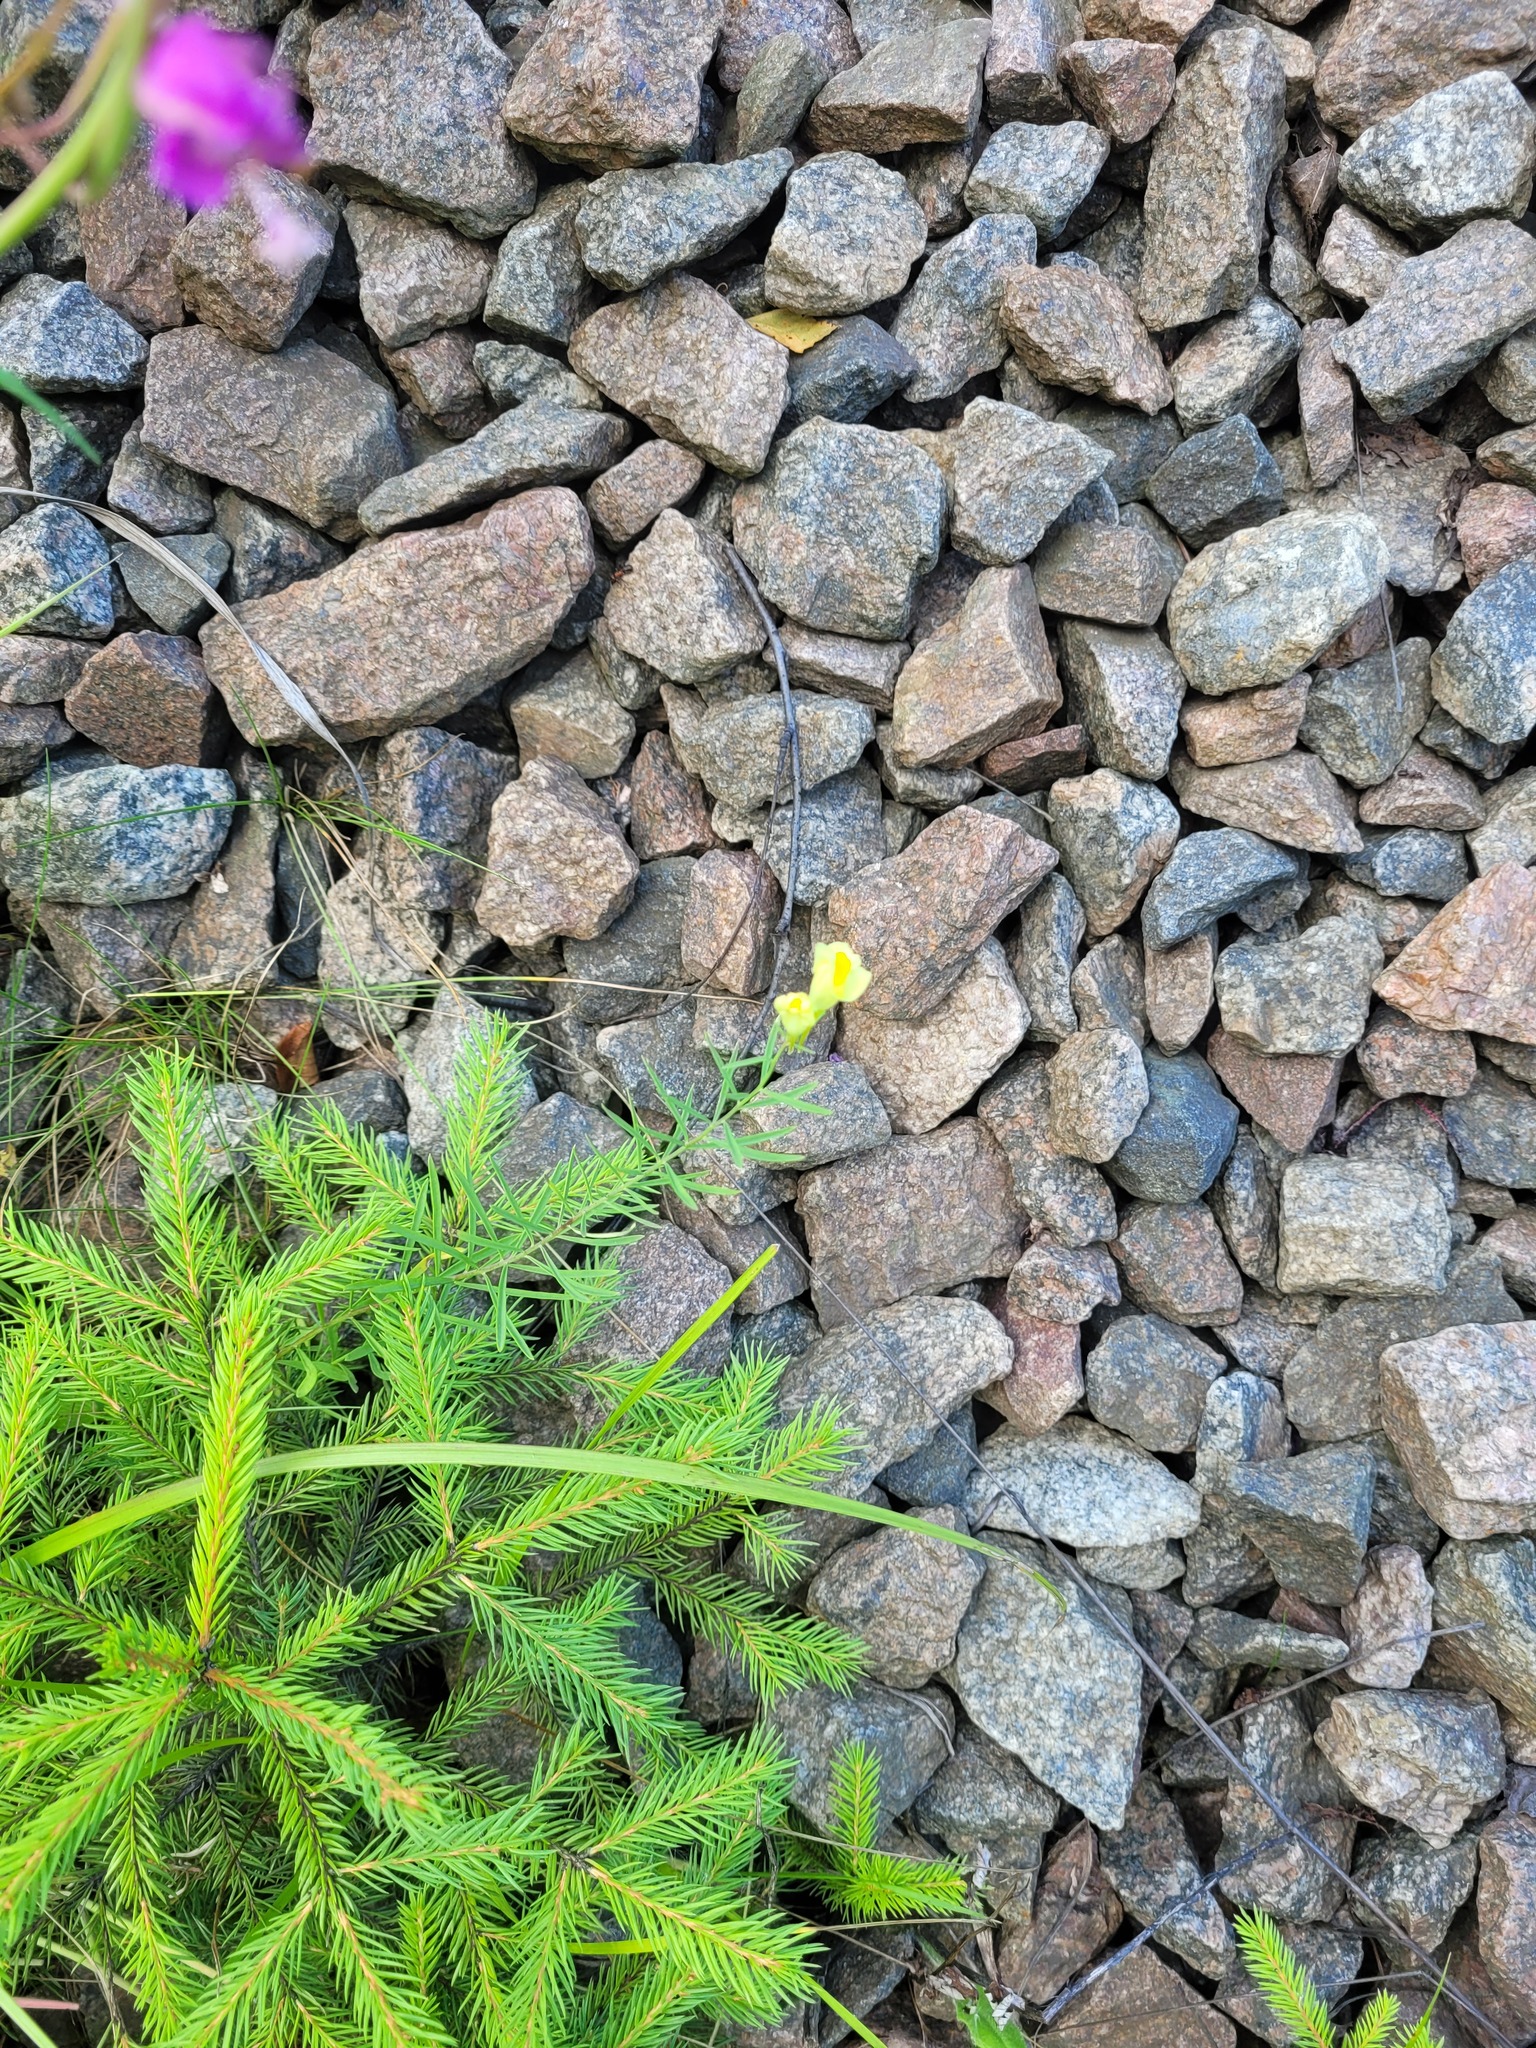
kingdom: Plantae
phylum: Tracheophyta
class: Magnoliopsida
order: Lamiales
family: Plantaginaceae
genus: Linaria
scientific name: Linaria vulgaris
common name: Butter and eggs
